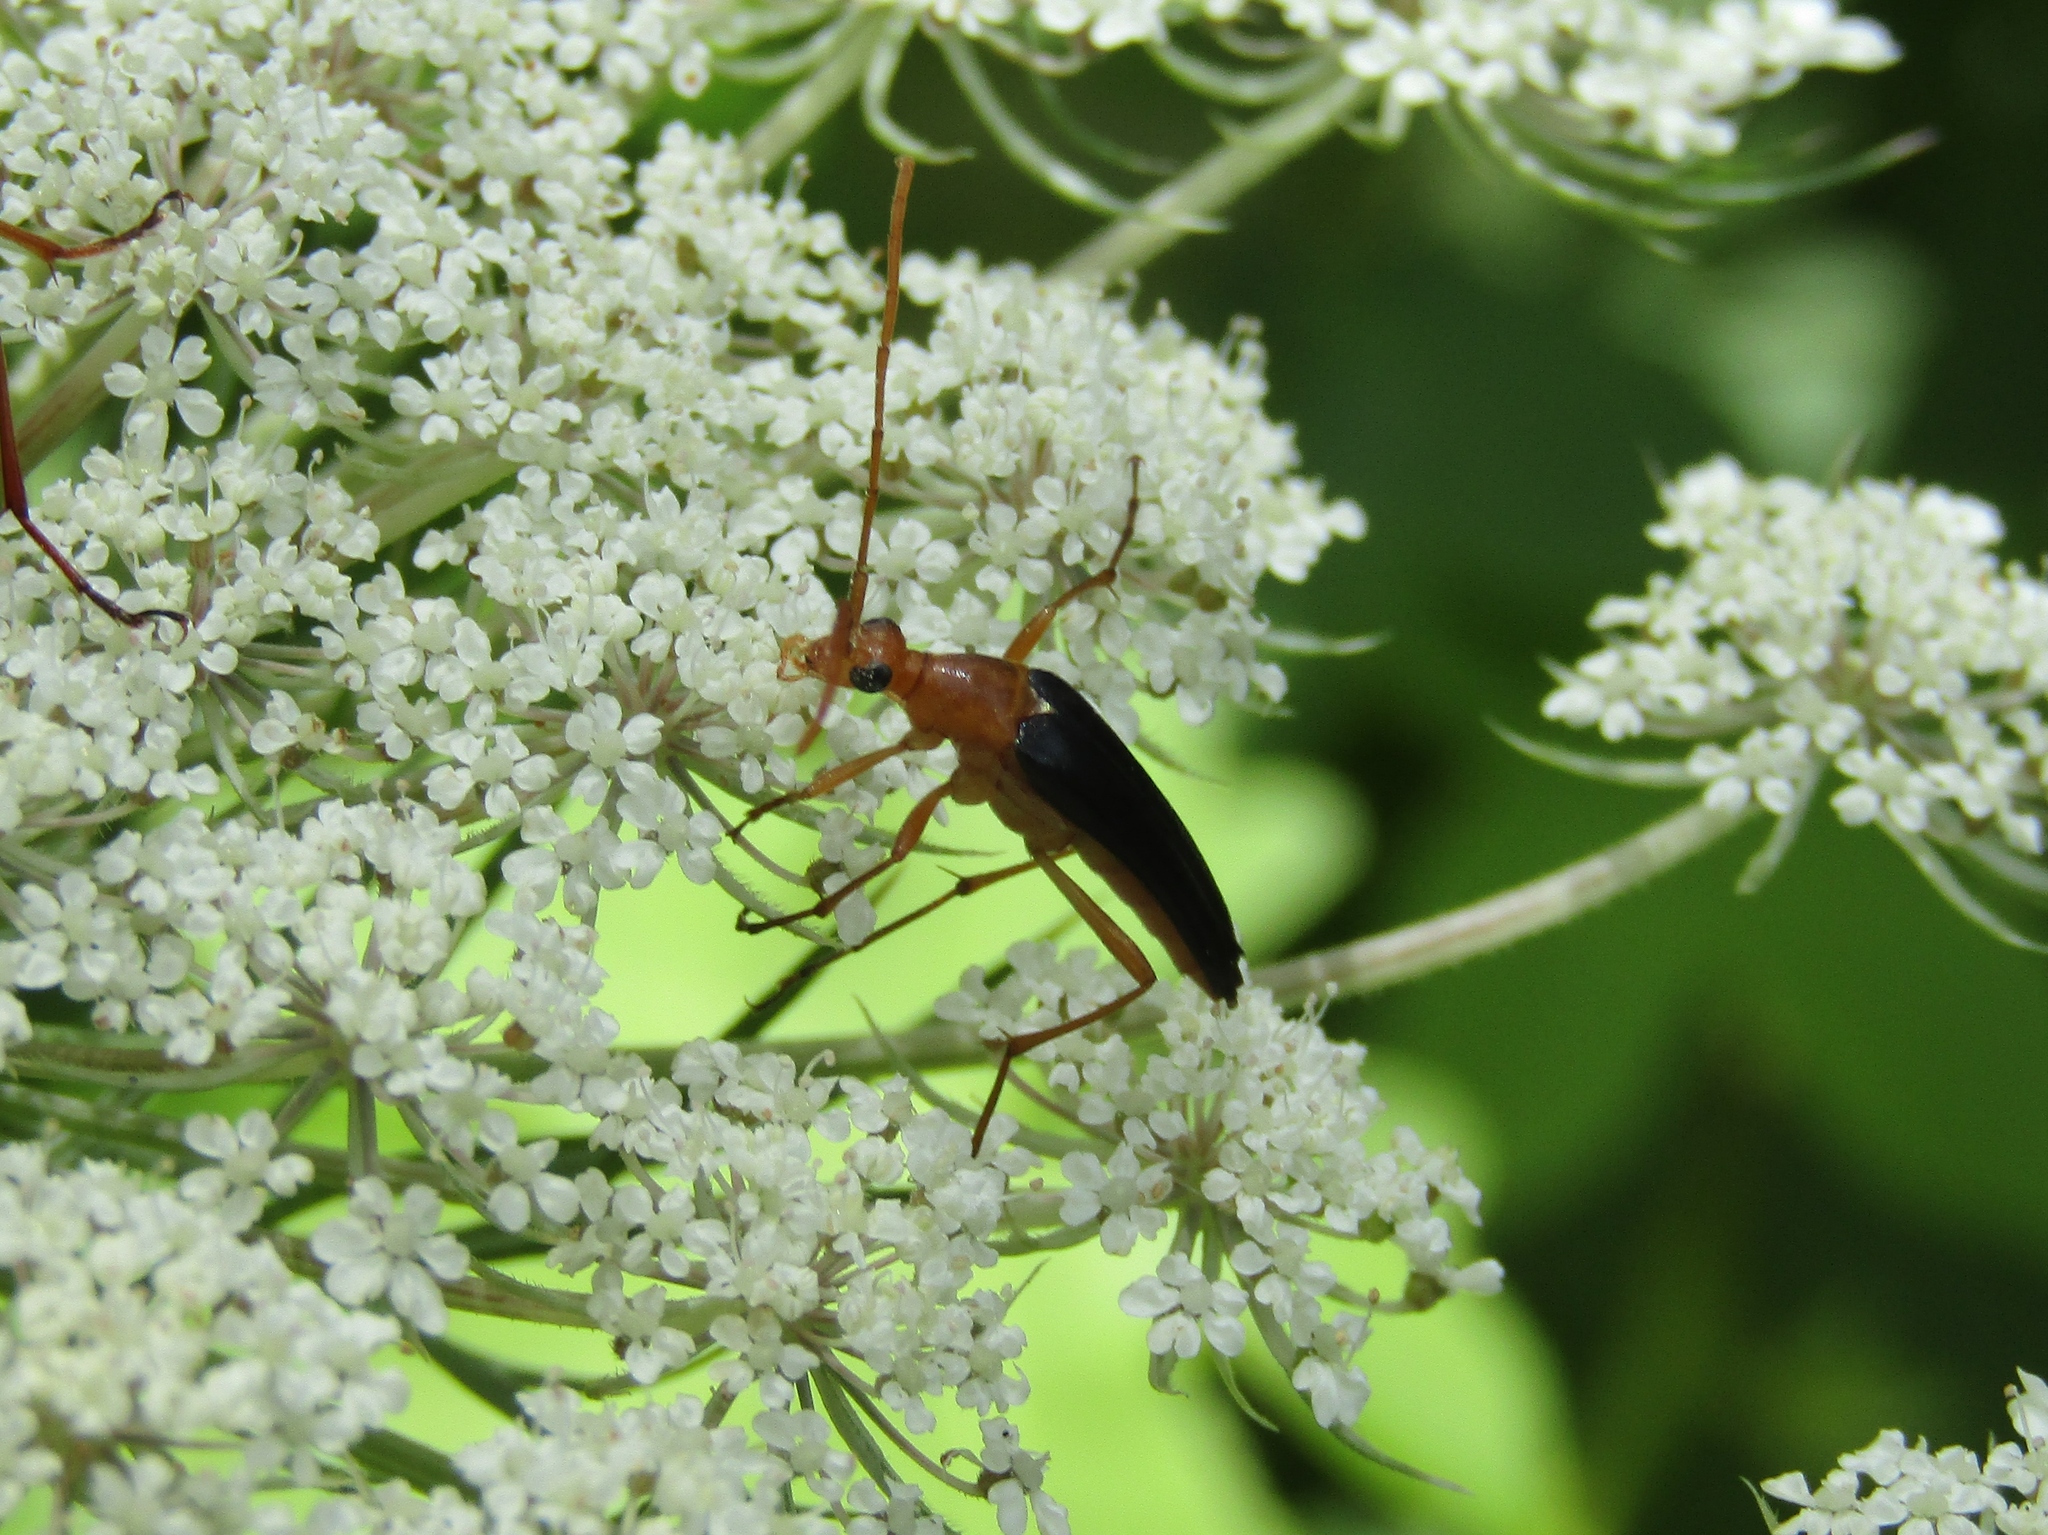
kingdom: Animalia
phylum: Arthropoda
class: Insecta
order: Coleoptera
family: Cerambycidae
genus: Strangalia
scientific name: Strangalia bicolor
